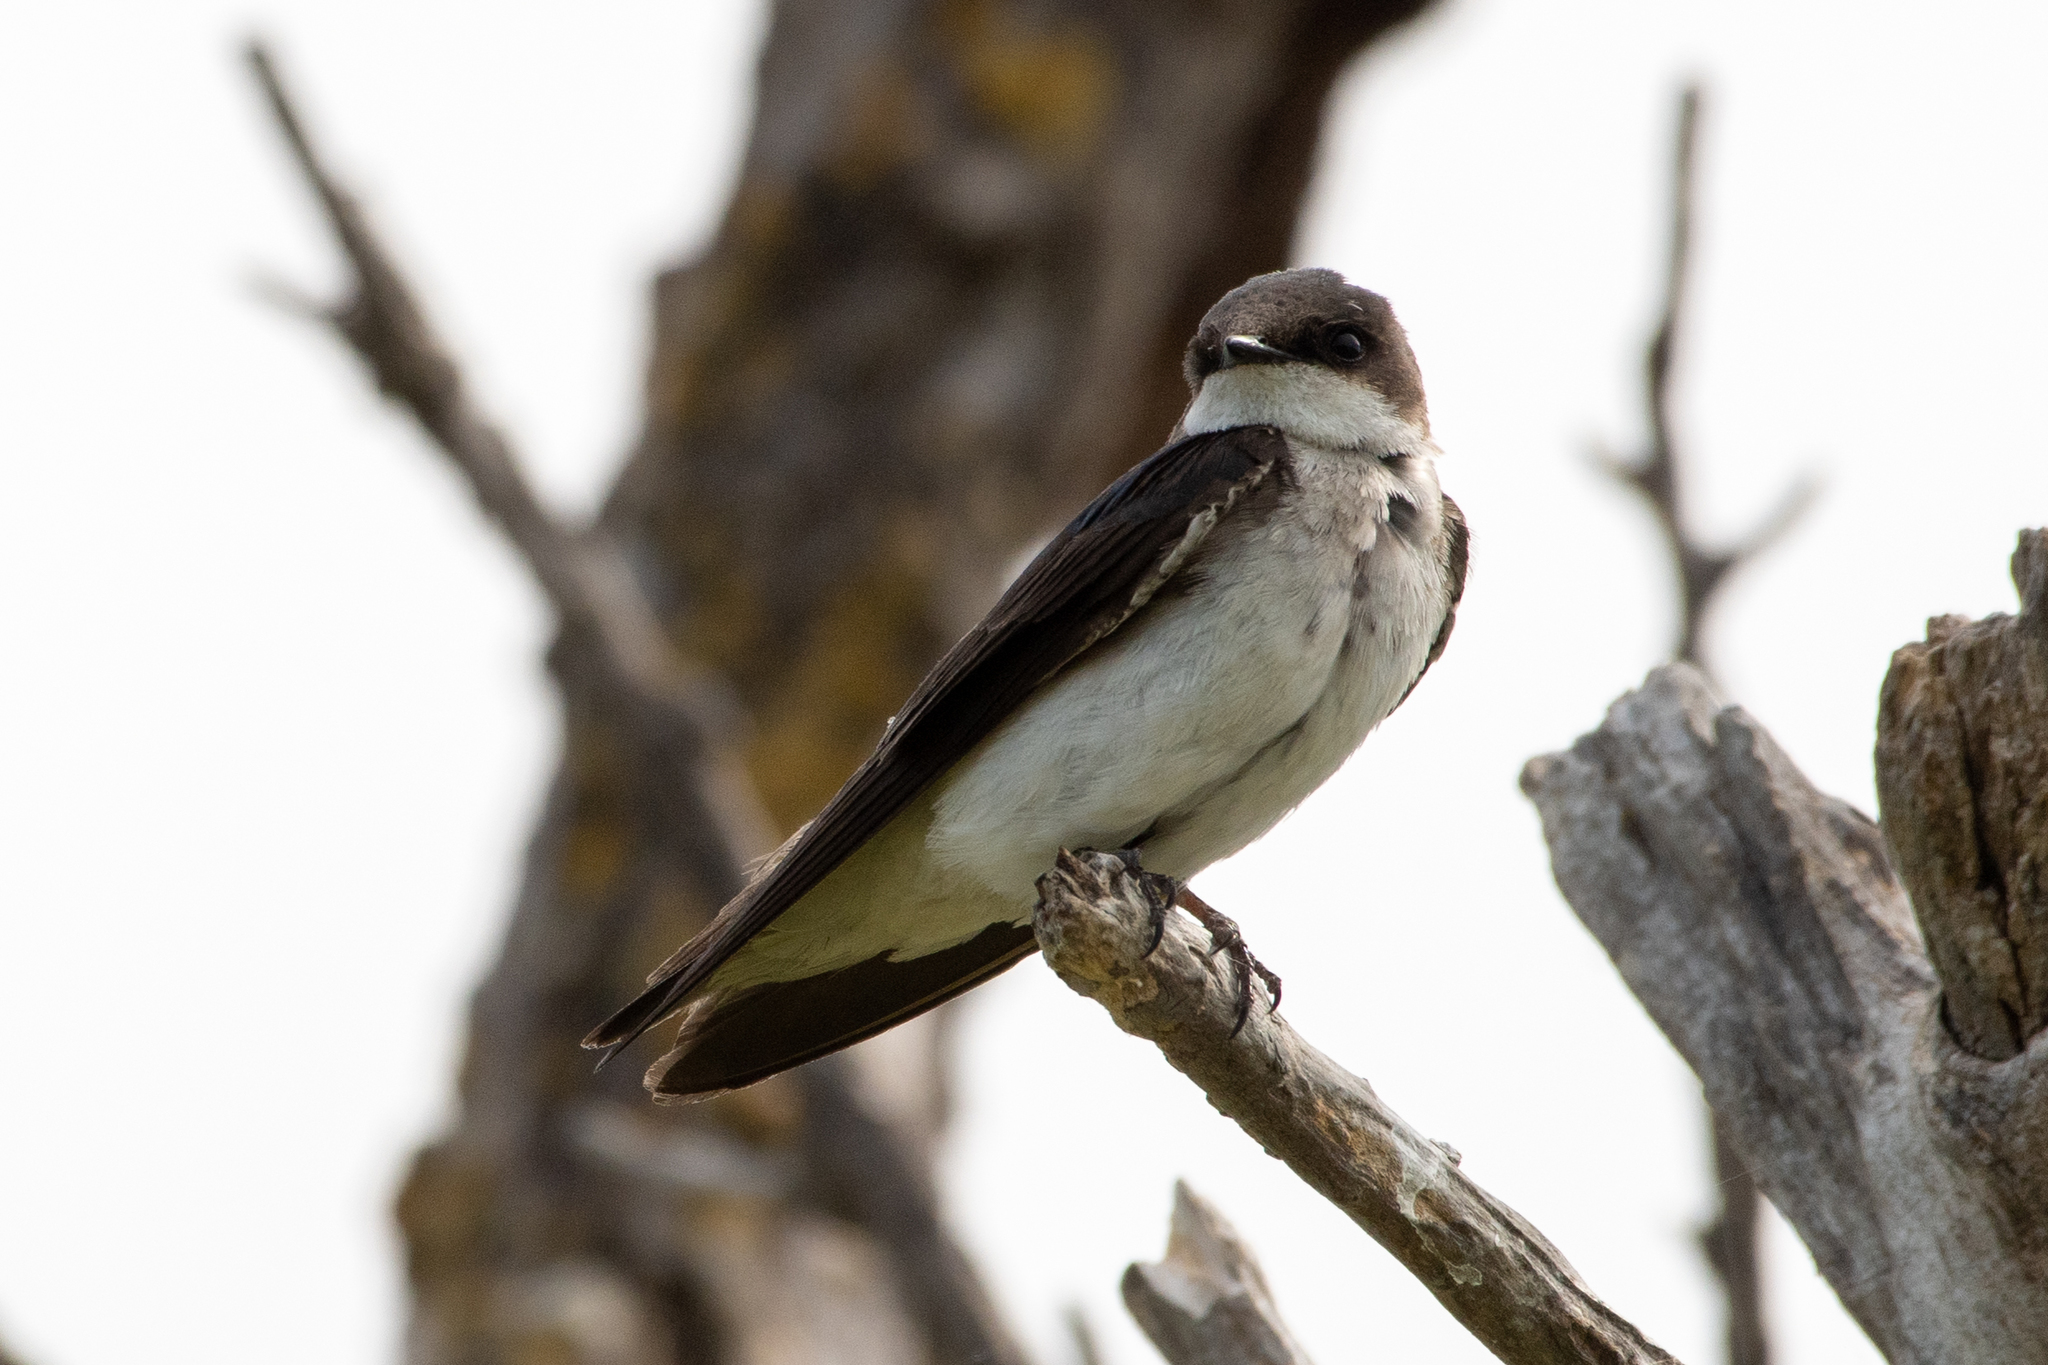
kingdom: Animalia
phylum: Chordata
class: Aves
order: Passeriformes
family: Hirundinidae
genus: Tachycineta
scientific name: Tachycineta bicolor
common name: Tree swallow
